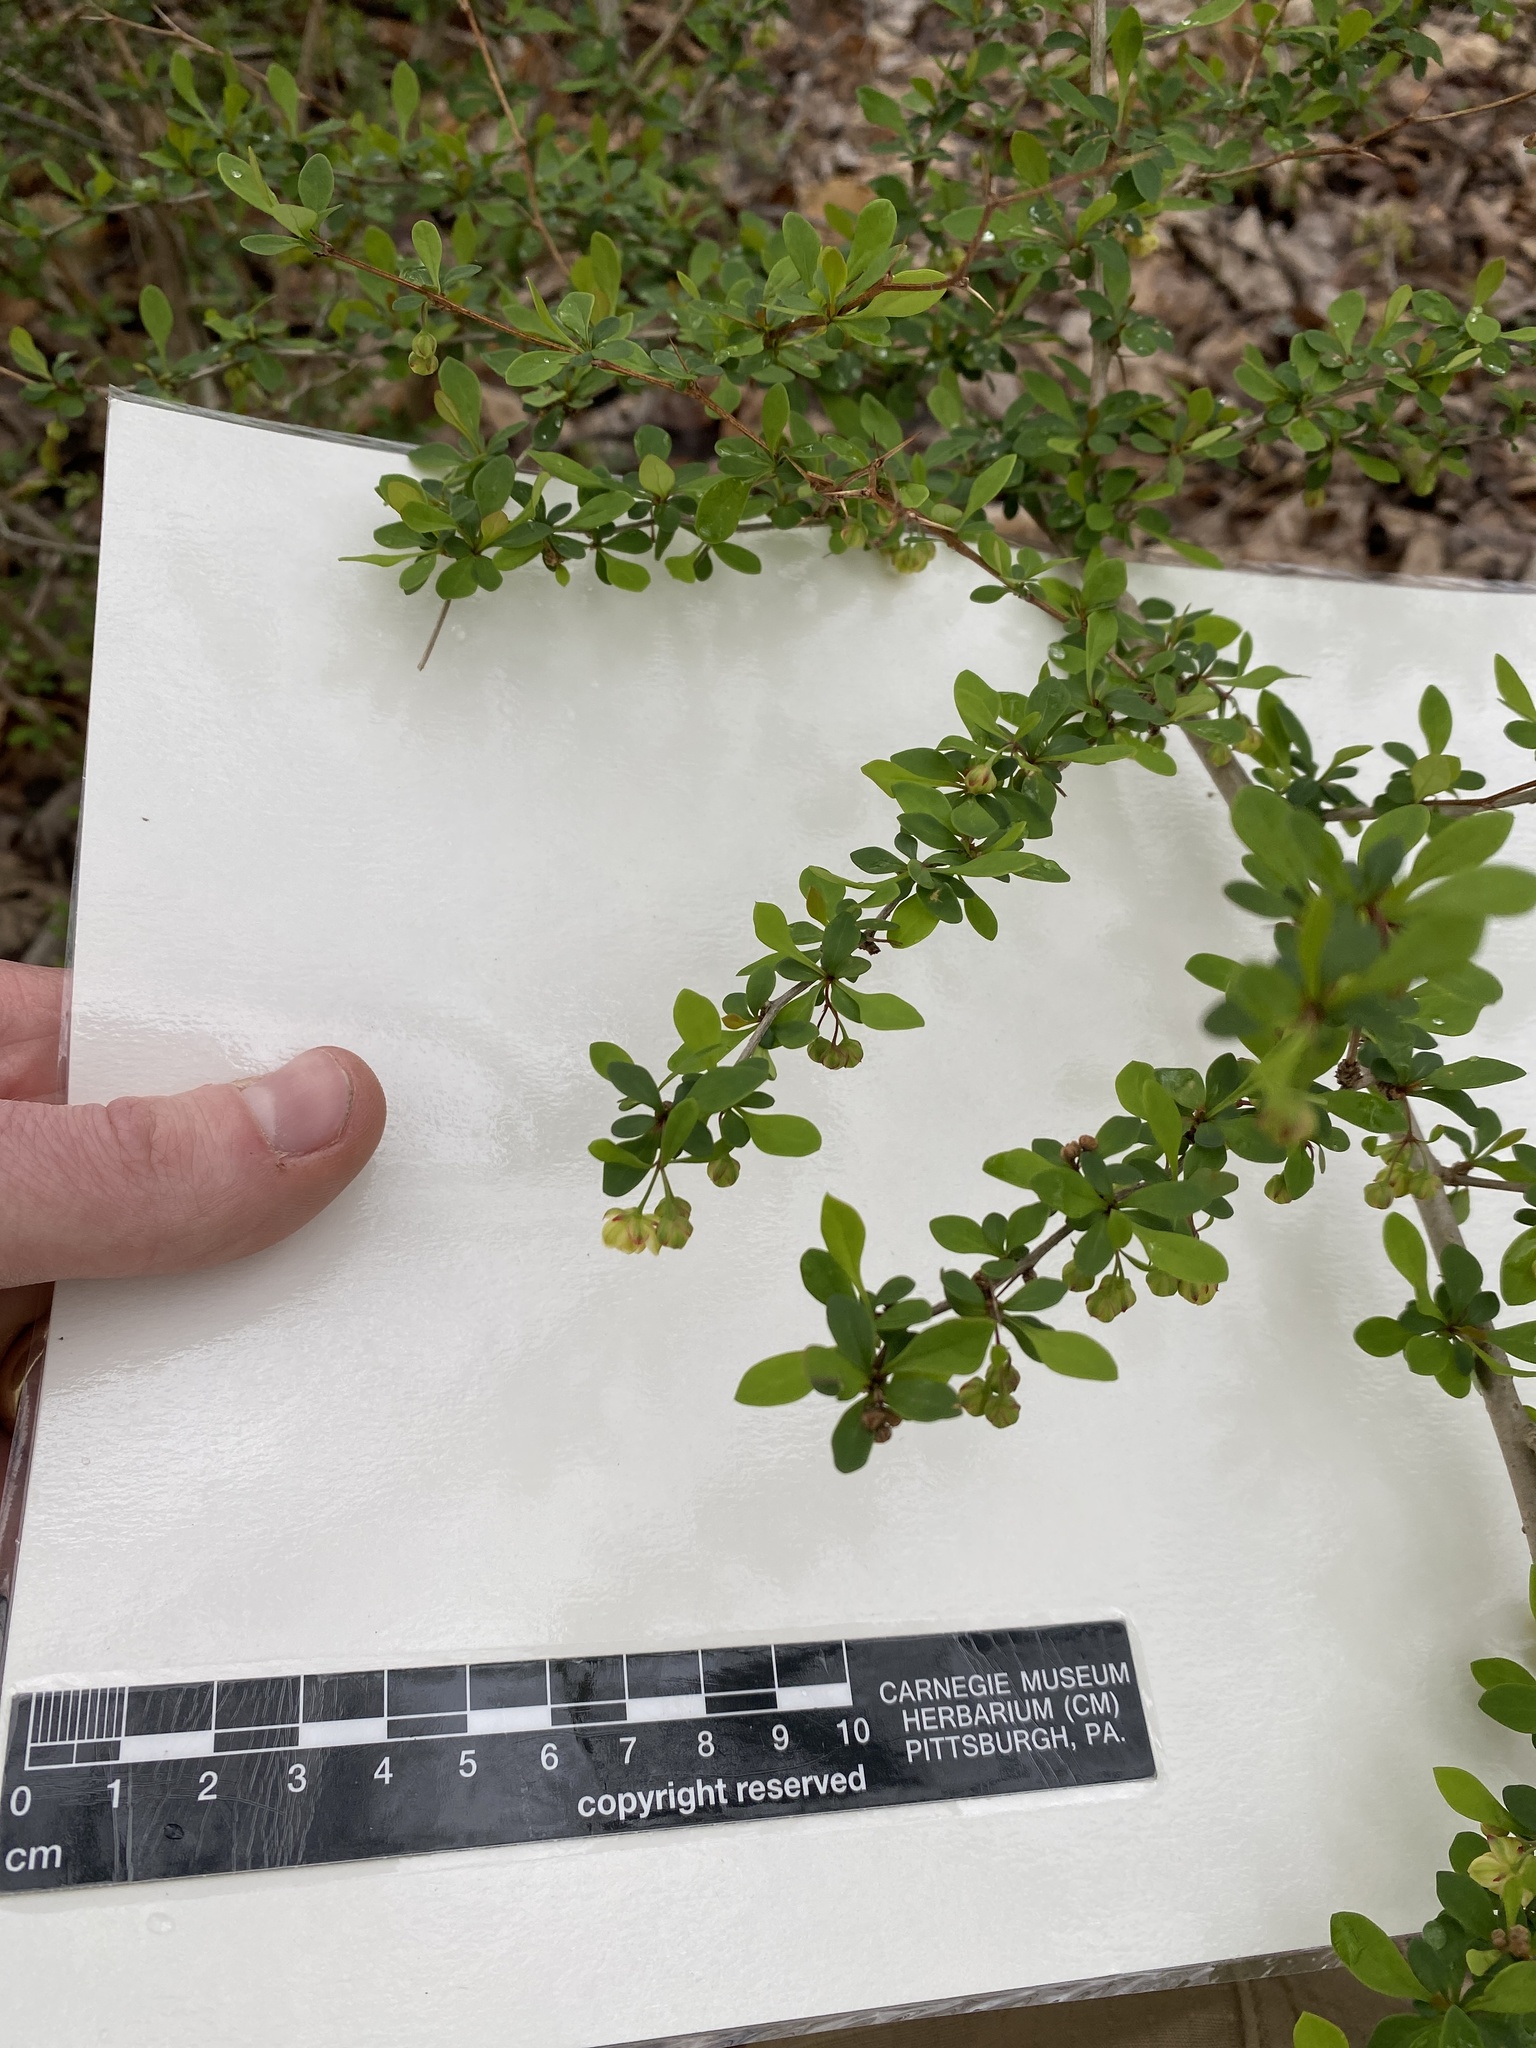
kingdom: Plantae
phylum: Tracheophyta
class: Magnoliopsida
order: Ranunculales
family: Berberidaceae
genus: Berberis
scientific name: Berberis thunbergii
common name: Japanese barberry
